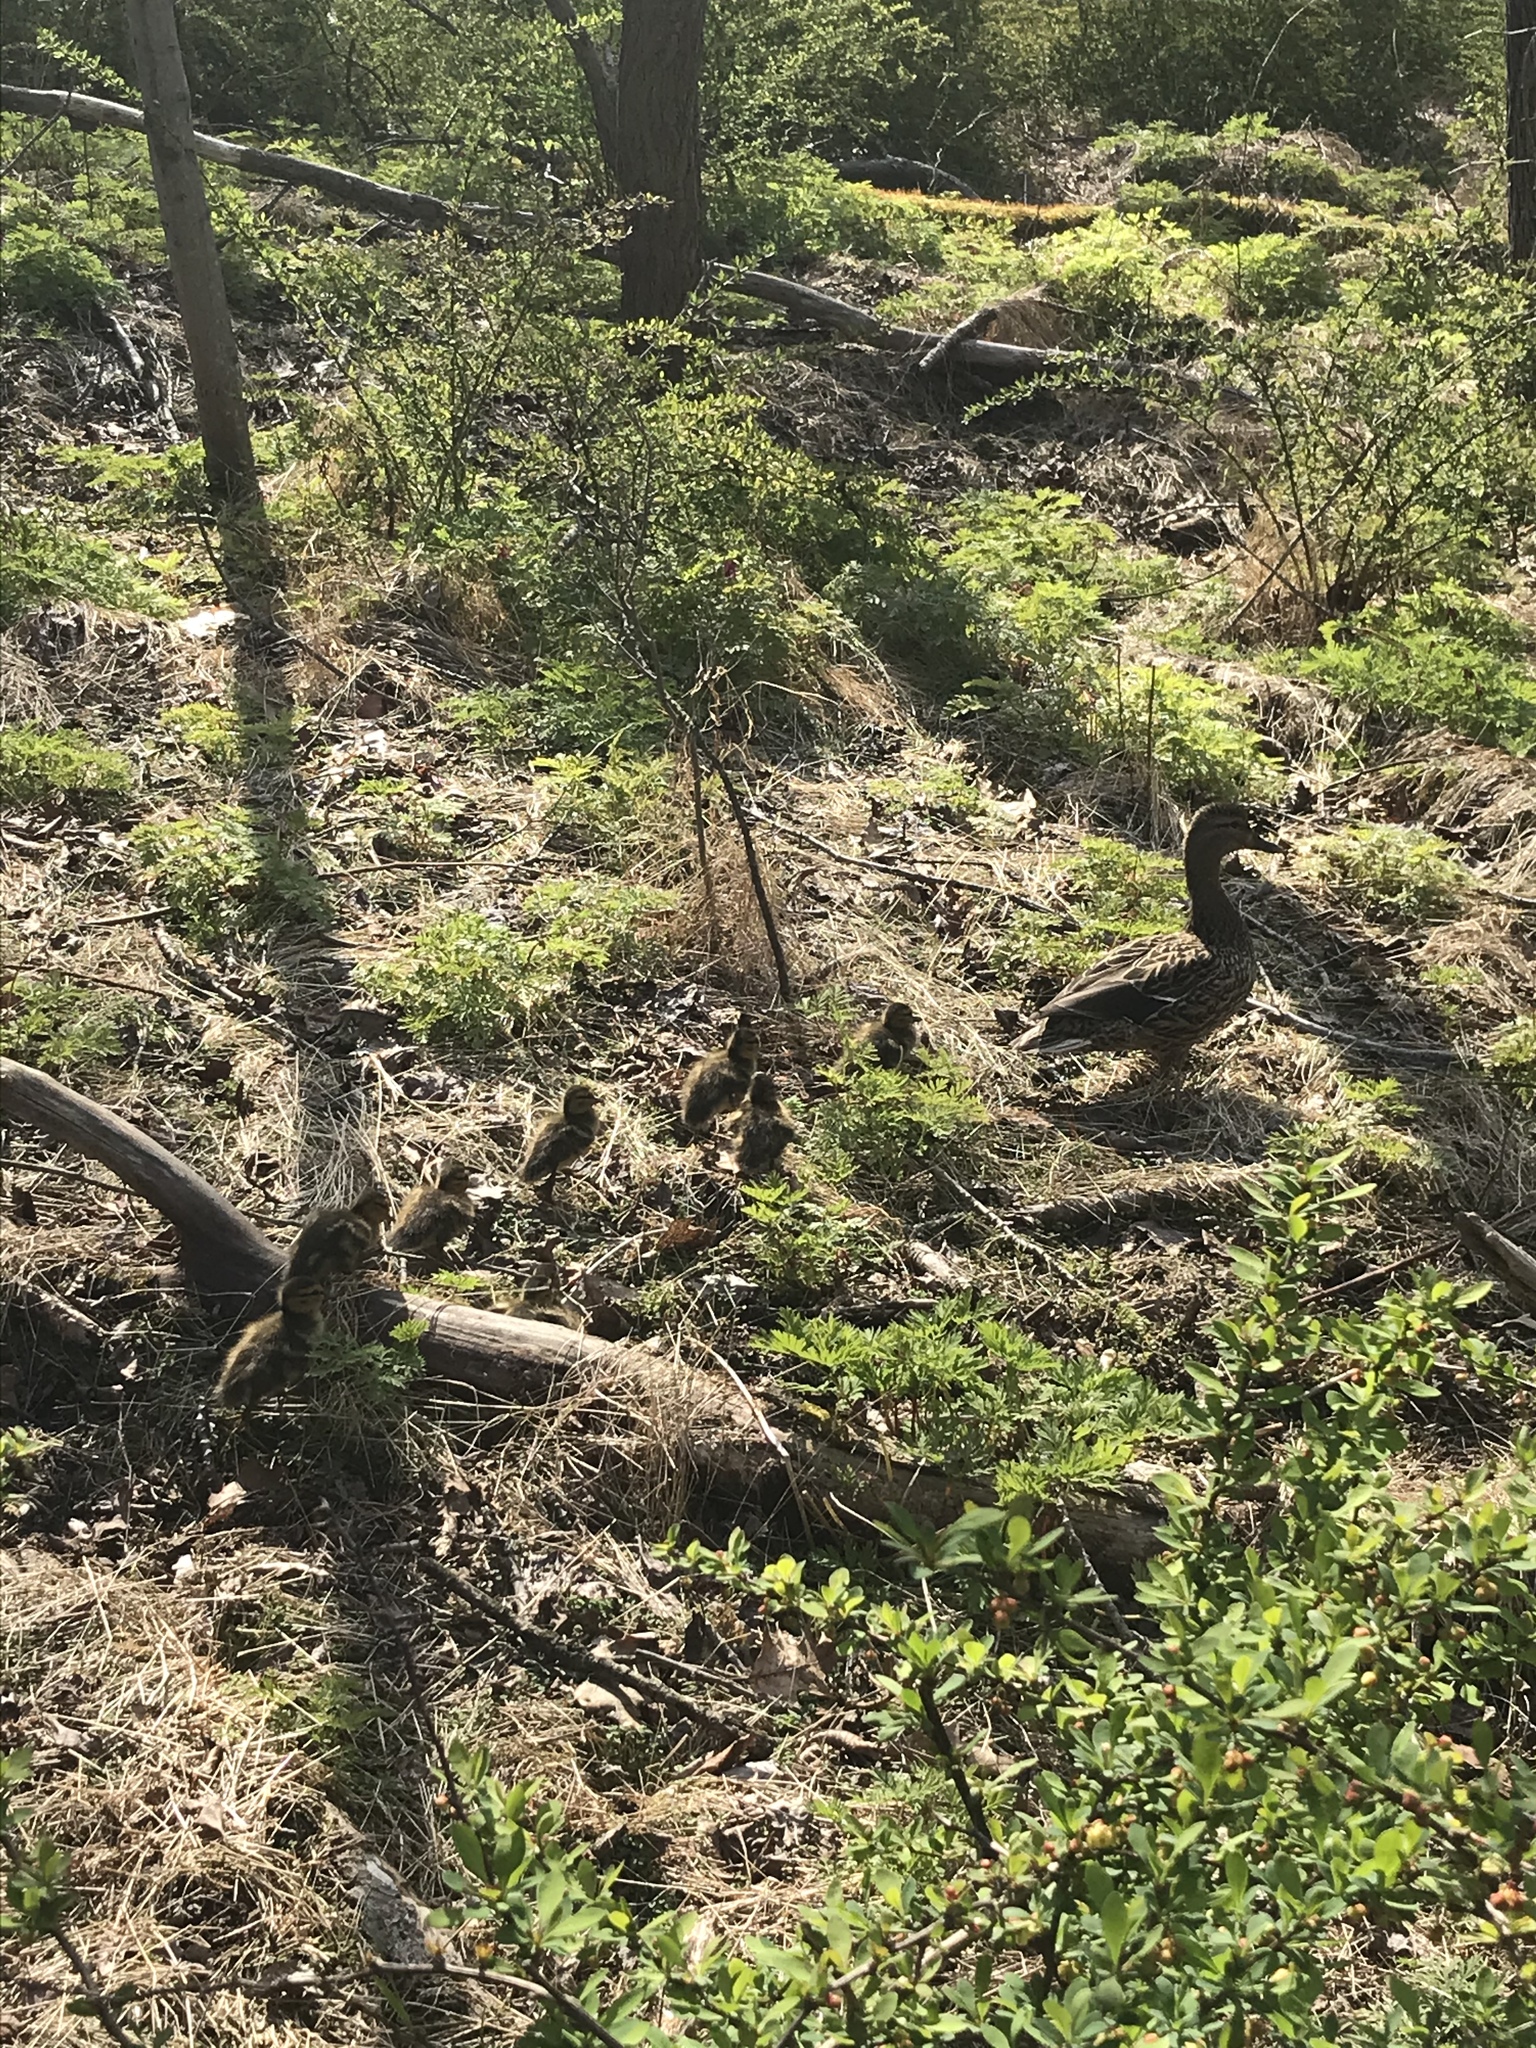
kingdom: Animalia
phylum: Chordata
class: Aves
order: Anseriformes
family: Anatidae
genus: Anas
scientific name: Anas platyrhynchos
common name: Mallard
